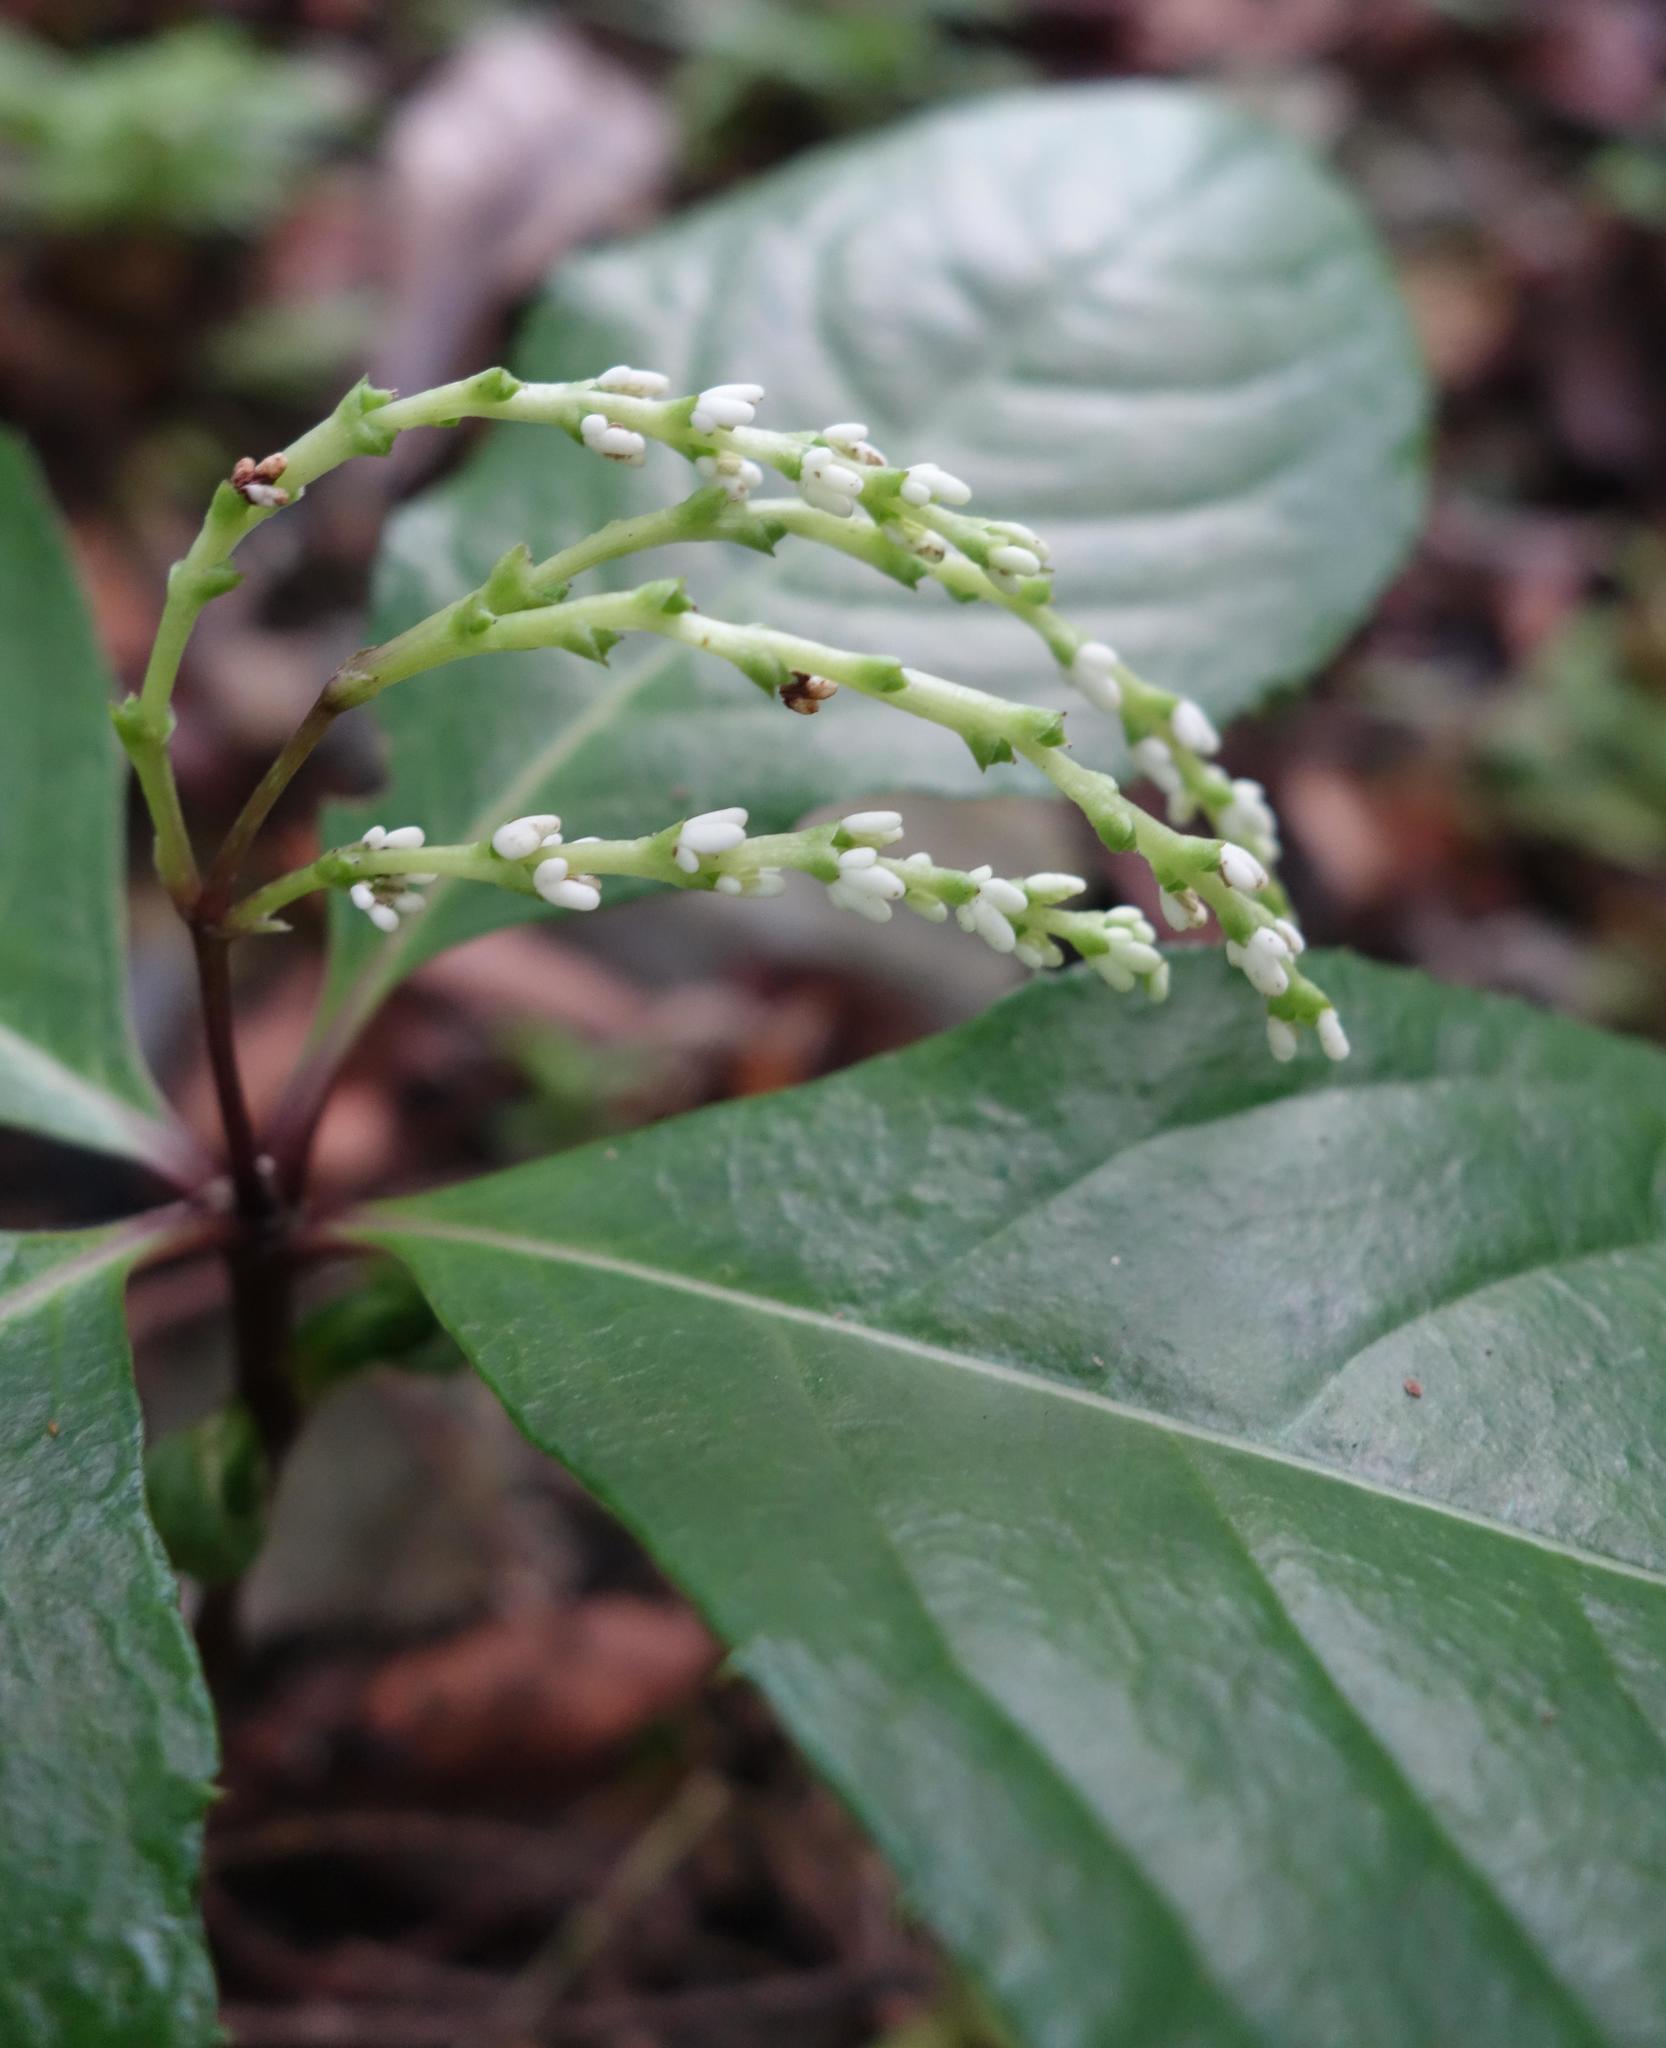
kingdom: Plantae
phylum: Tracheophyta
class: Magnoliopsida
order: Chloranthales
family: Chloranthaceae
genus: Chloranthus
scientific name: Chloranthus oldhamii
